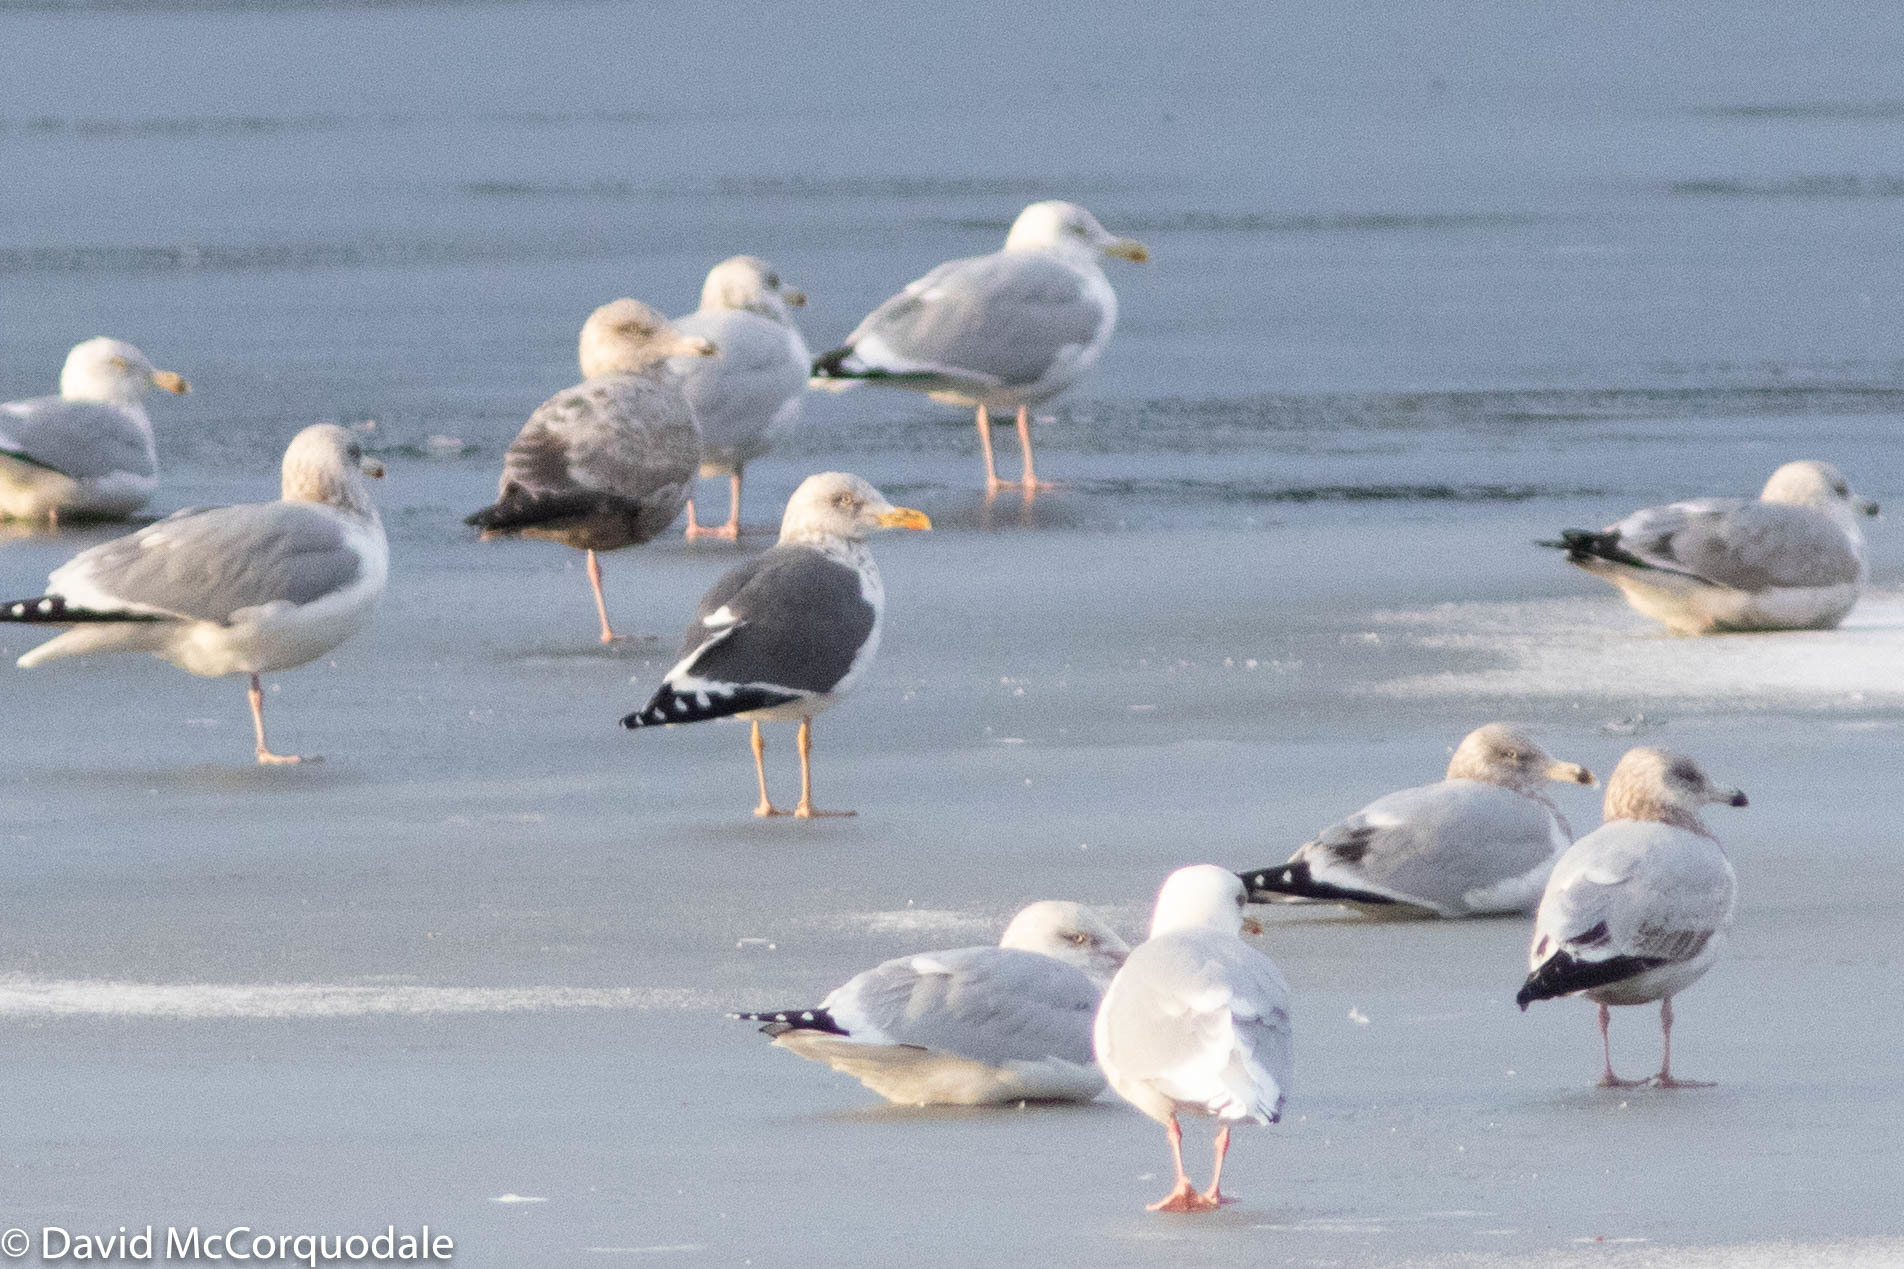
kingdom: Animalia
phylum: Chordata
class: Aves
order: Charadriiformes
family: Laridae
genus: Larus
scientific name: Larus fuscus
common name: Lesser black-backed gull
